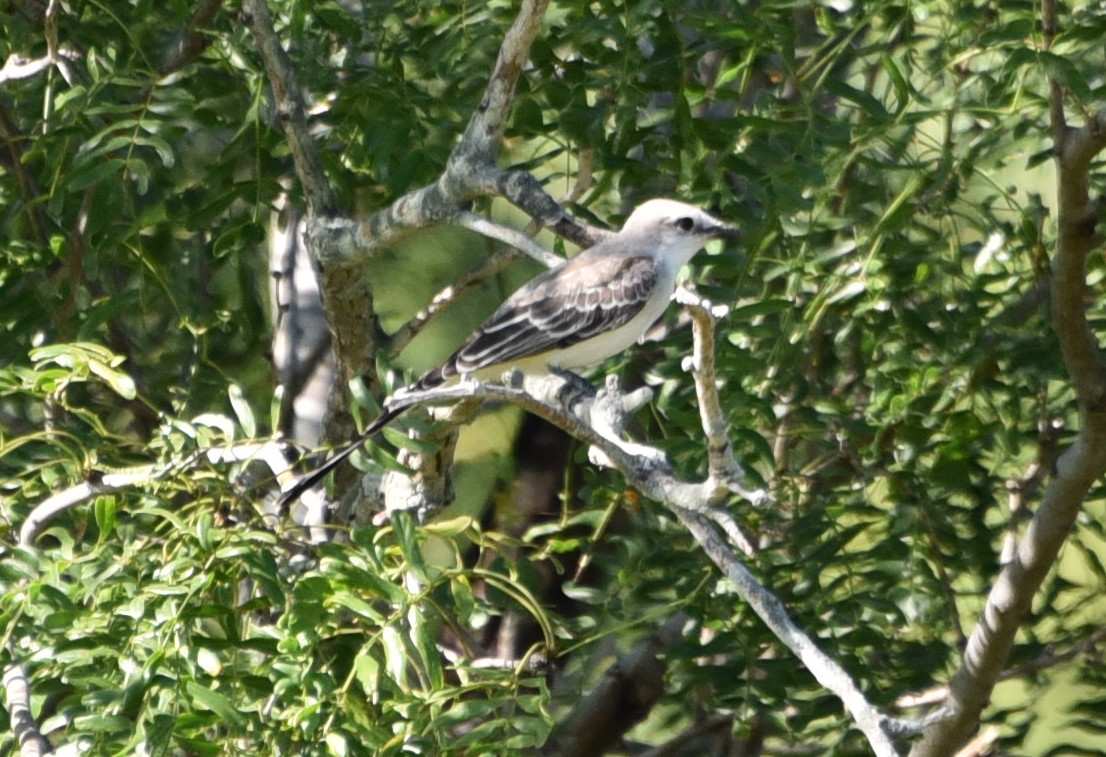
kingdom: Animalia
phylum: Chordata
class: Aves
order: Passeriformes
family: Tyrannidae
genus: Tyrannus
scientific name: Tyrannus forficatus
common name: Scissor-tailed flycatcher
